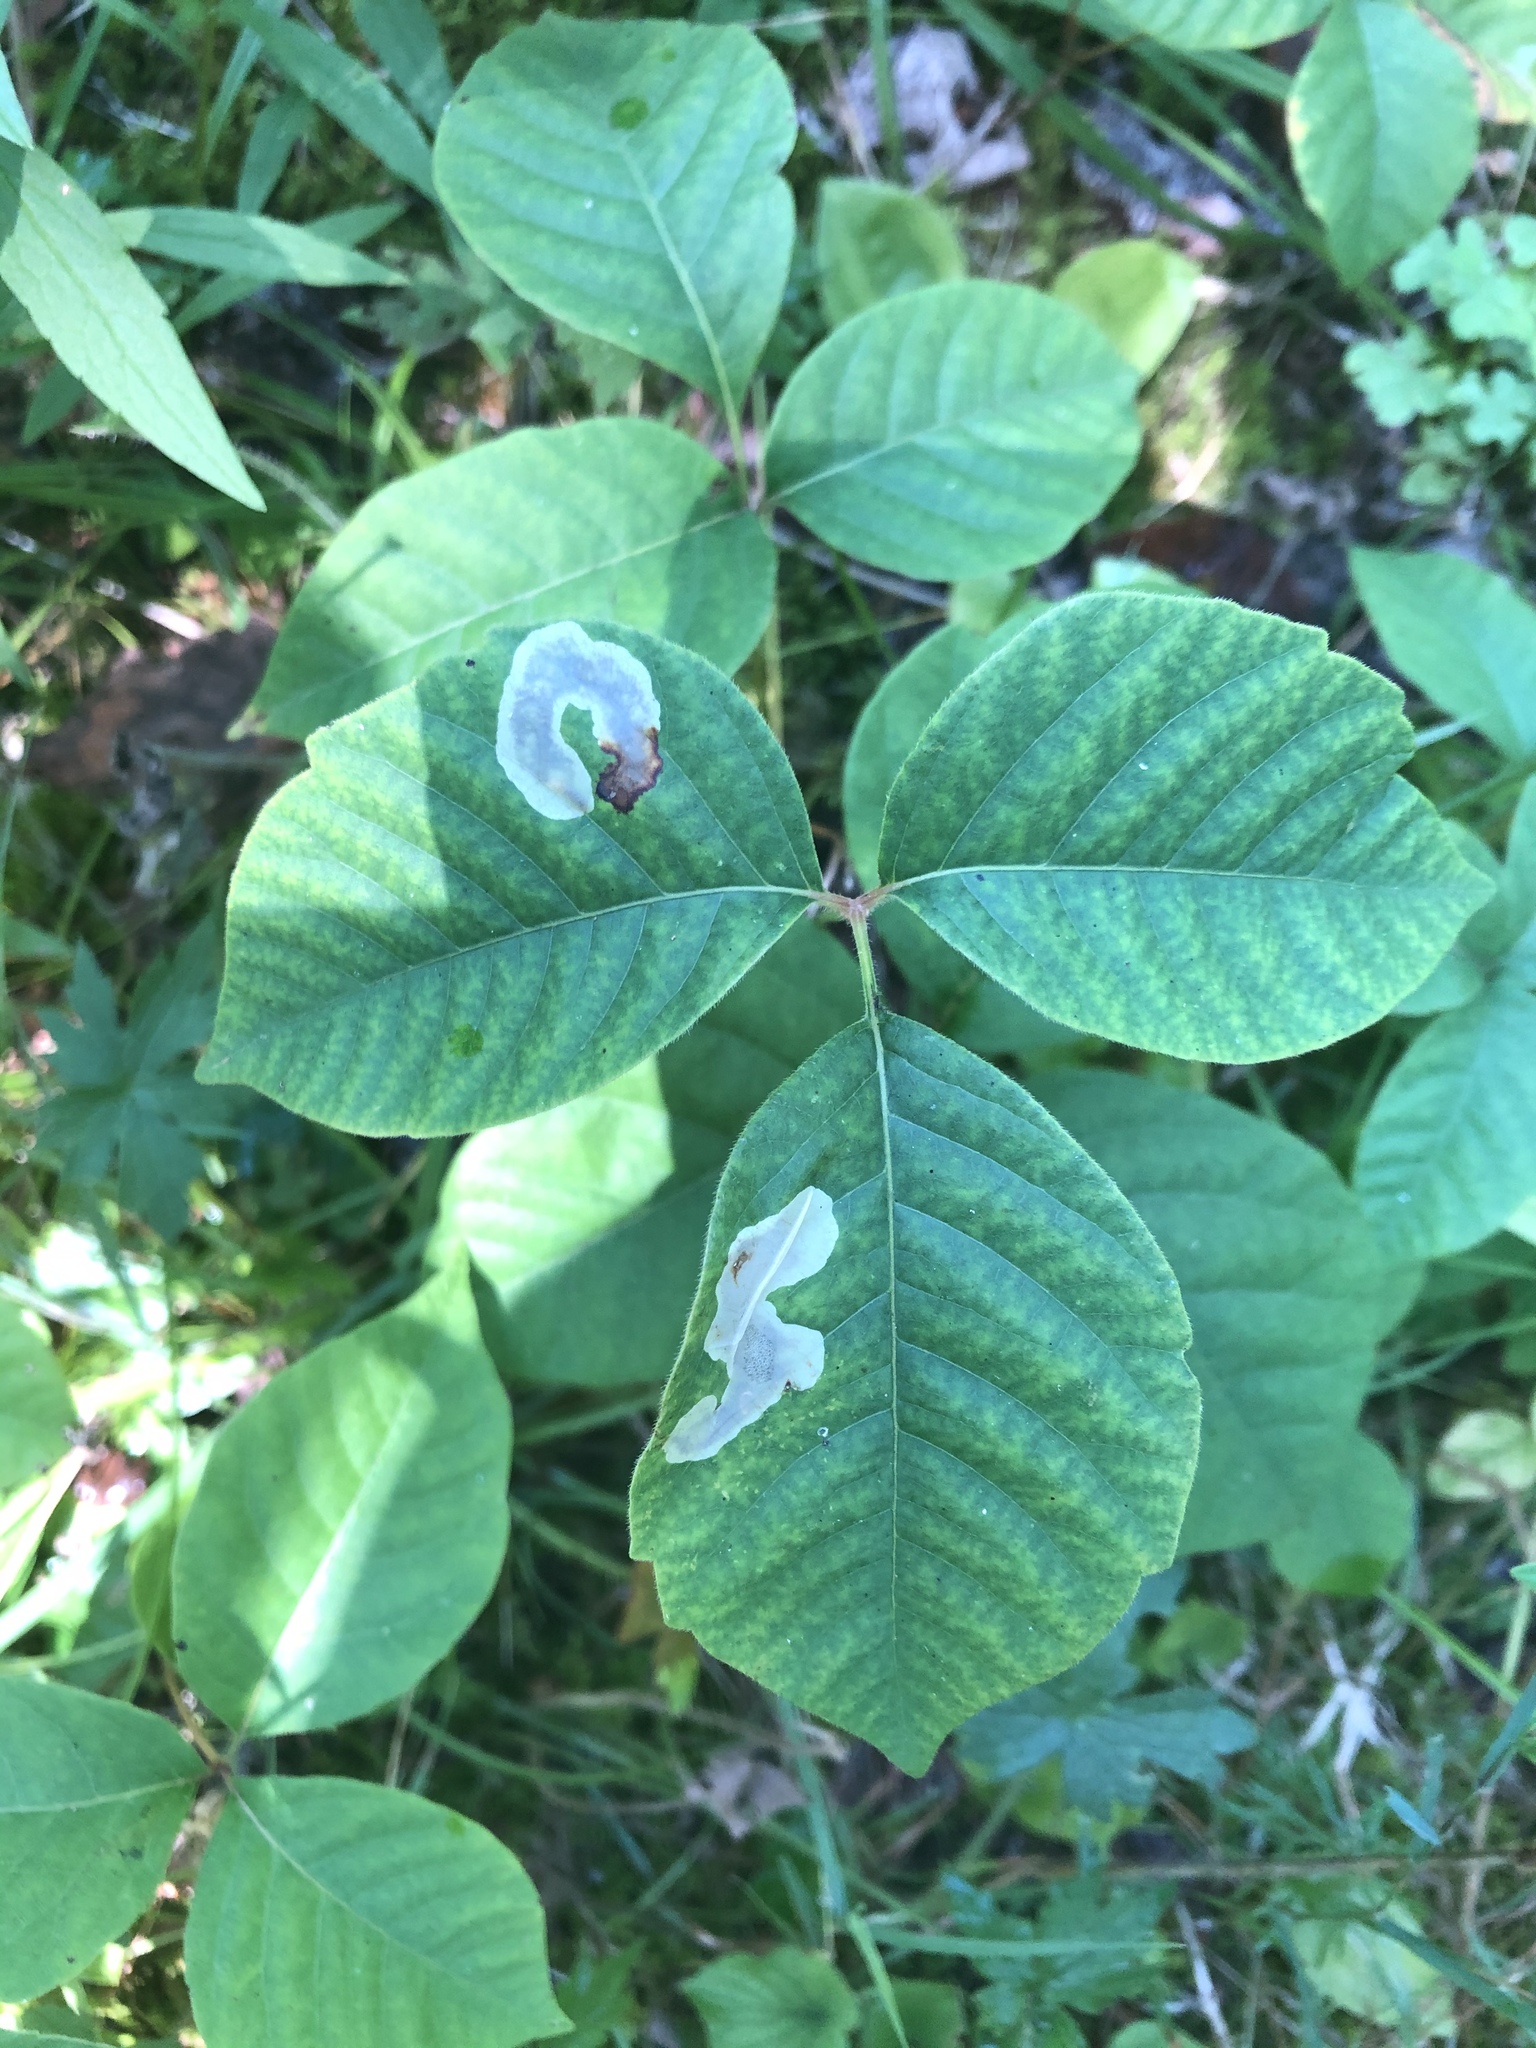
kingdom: Animalia
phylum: Arthropoda
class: Insecta
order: Lepidoptera
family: Gracillariidae
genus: Cameraria
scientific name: Cameraria guttifinitella
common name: Poison ivy leaf-miner moth
